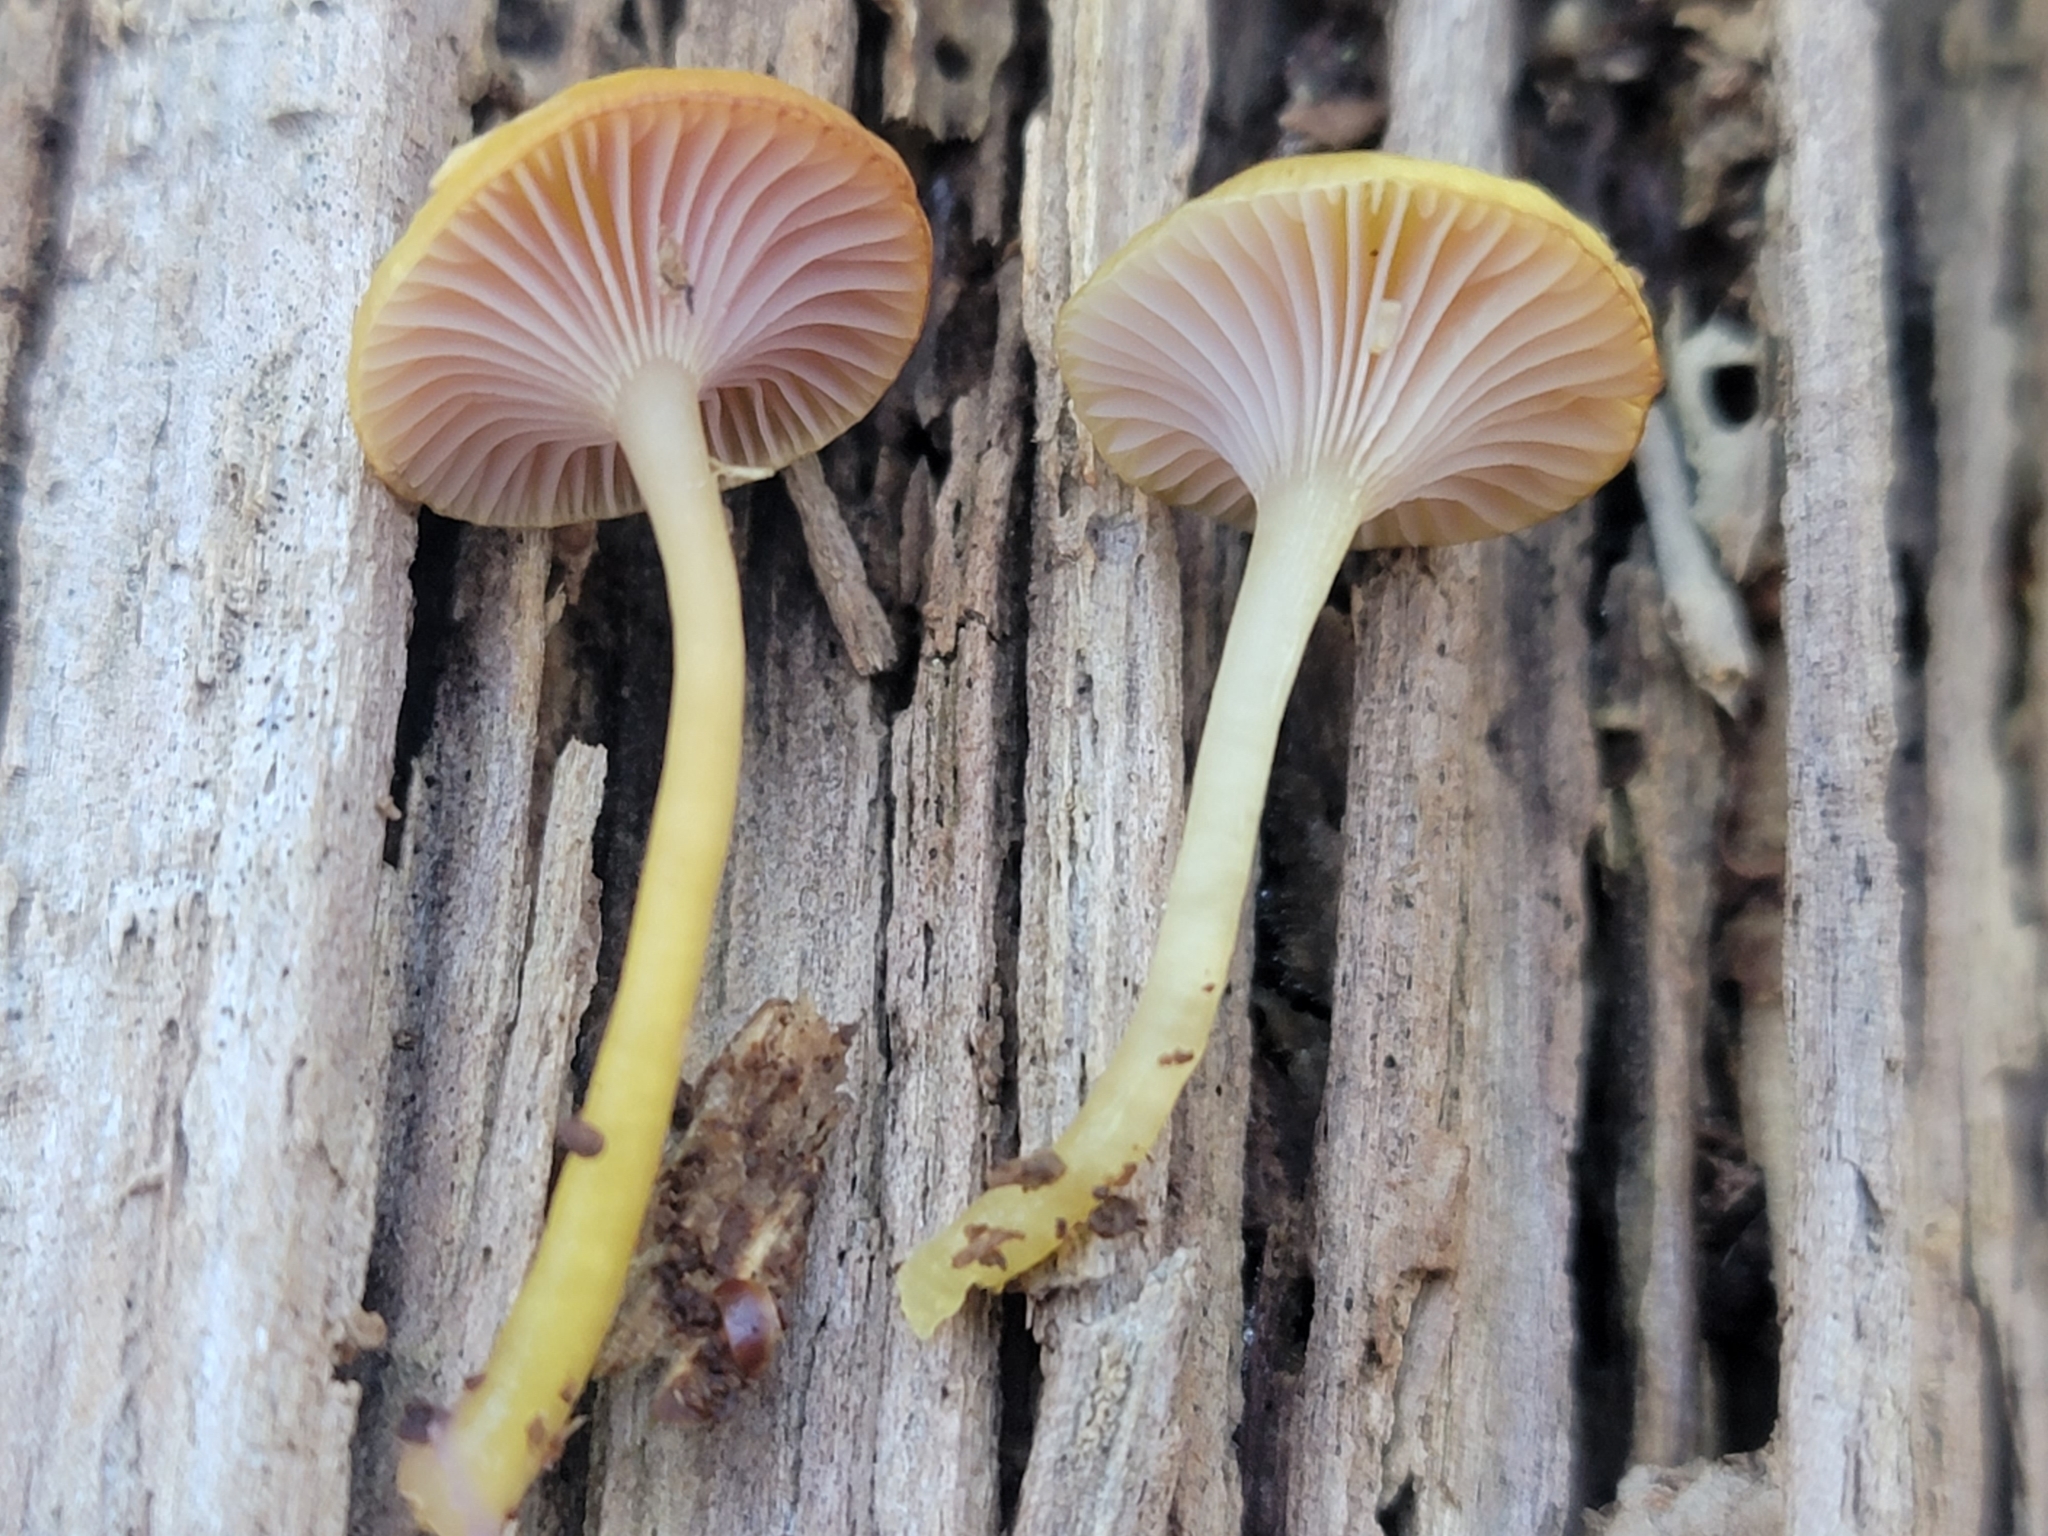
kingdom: Fungi
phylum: Basidiomycota
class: Agaricomycetes
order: Agaricales
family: Hygrophoraceae
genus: Chromosera
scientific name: Chromosera cyanophylla
